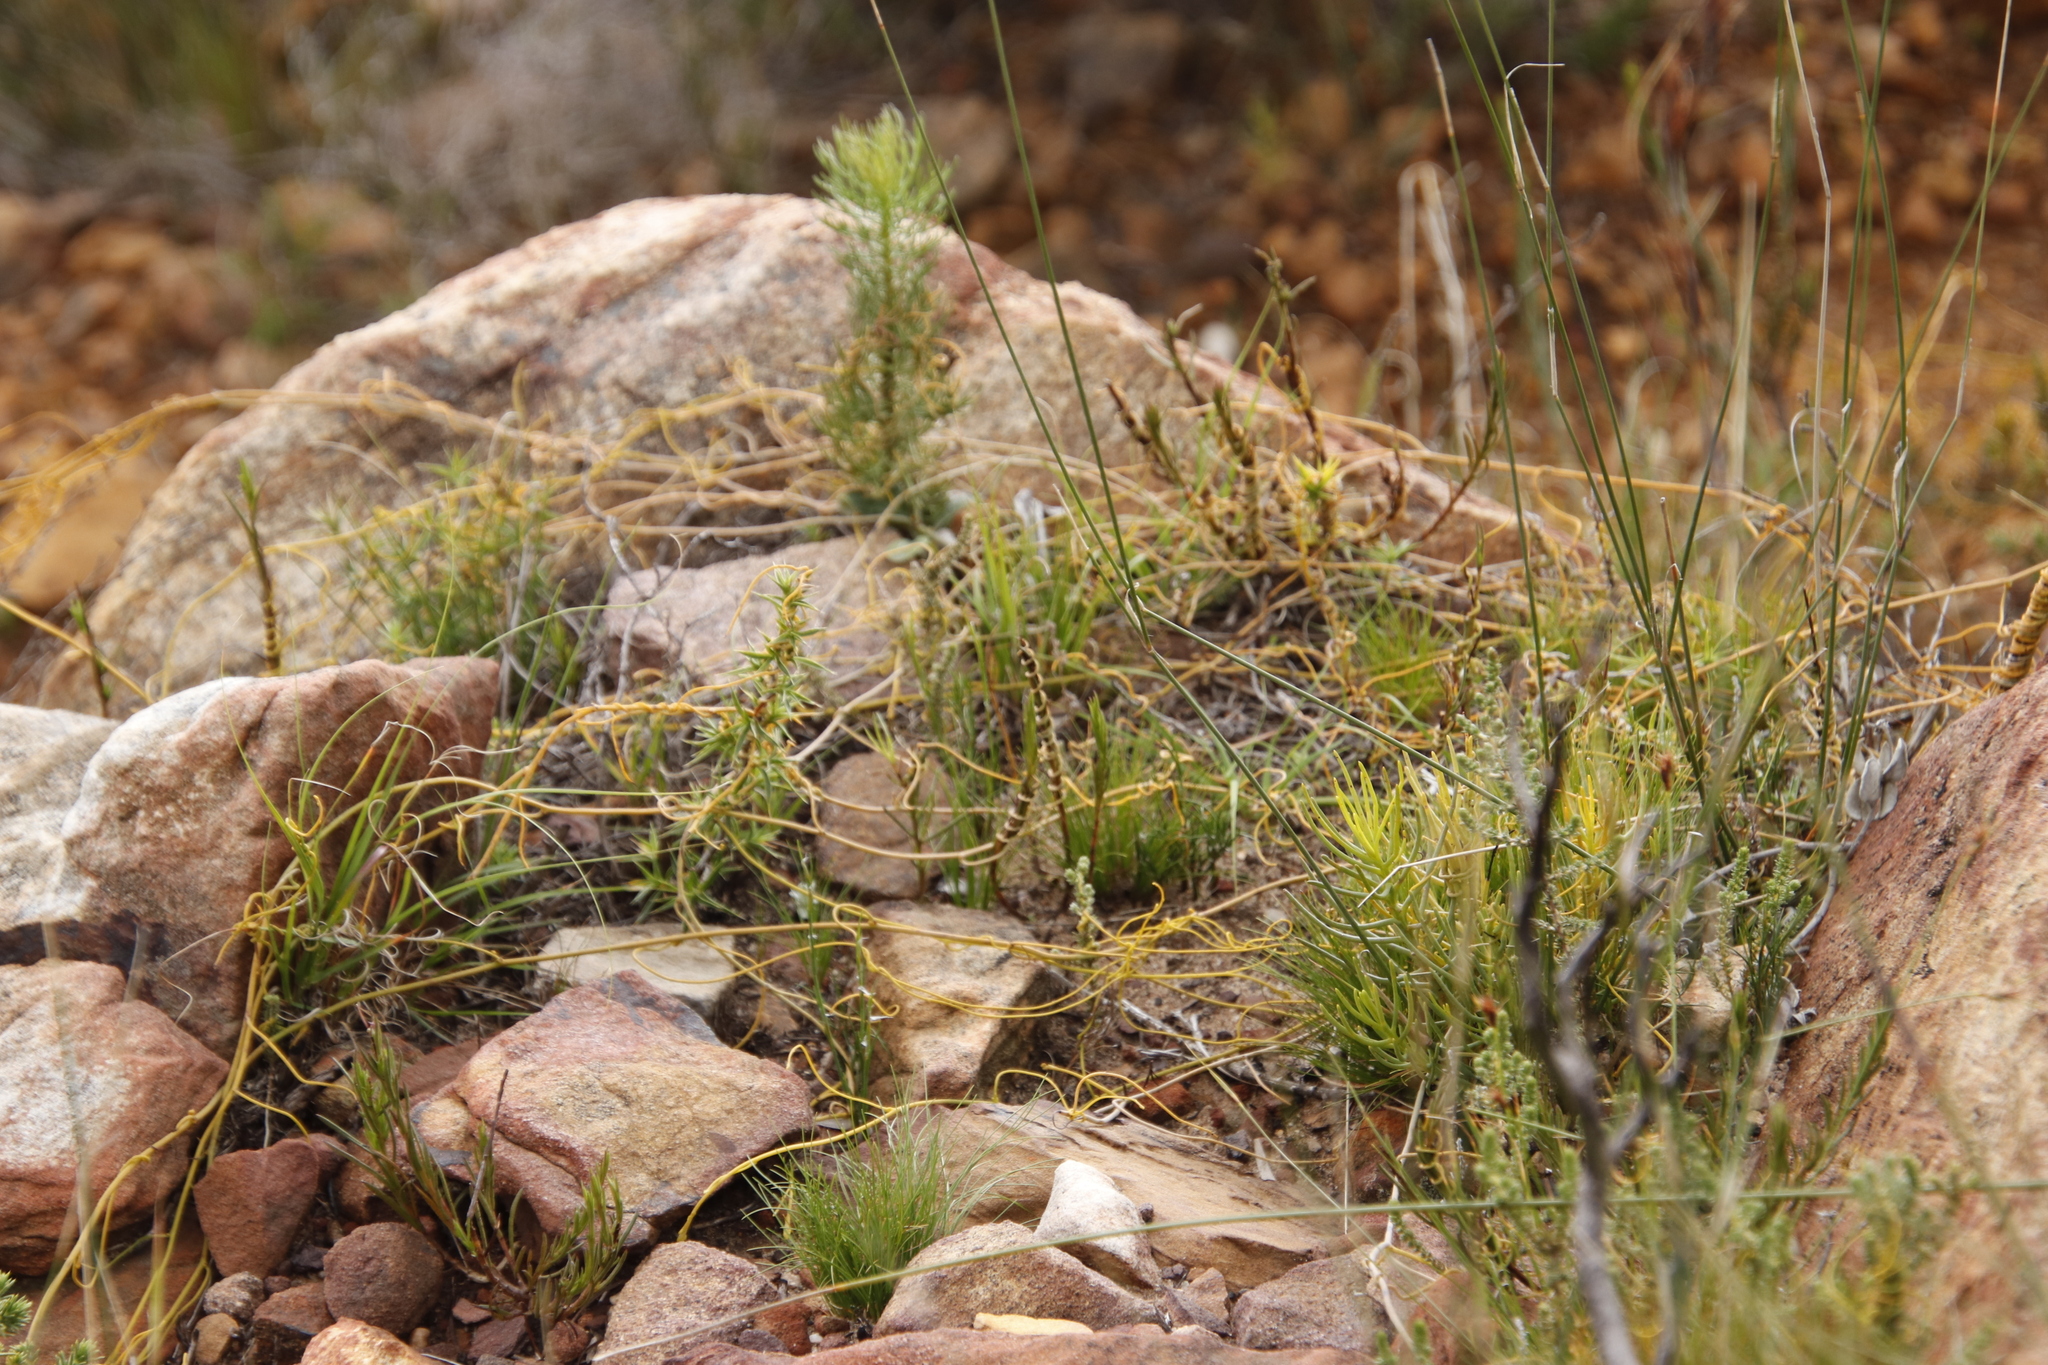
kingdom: Plantae
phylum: Tracheophyta
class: Magnoliopsida
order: Laurales
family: Lauraceae
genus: Cassytha
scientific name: Cassytha ciliolata
